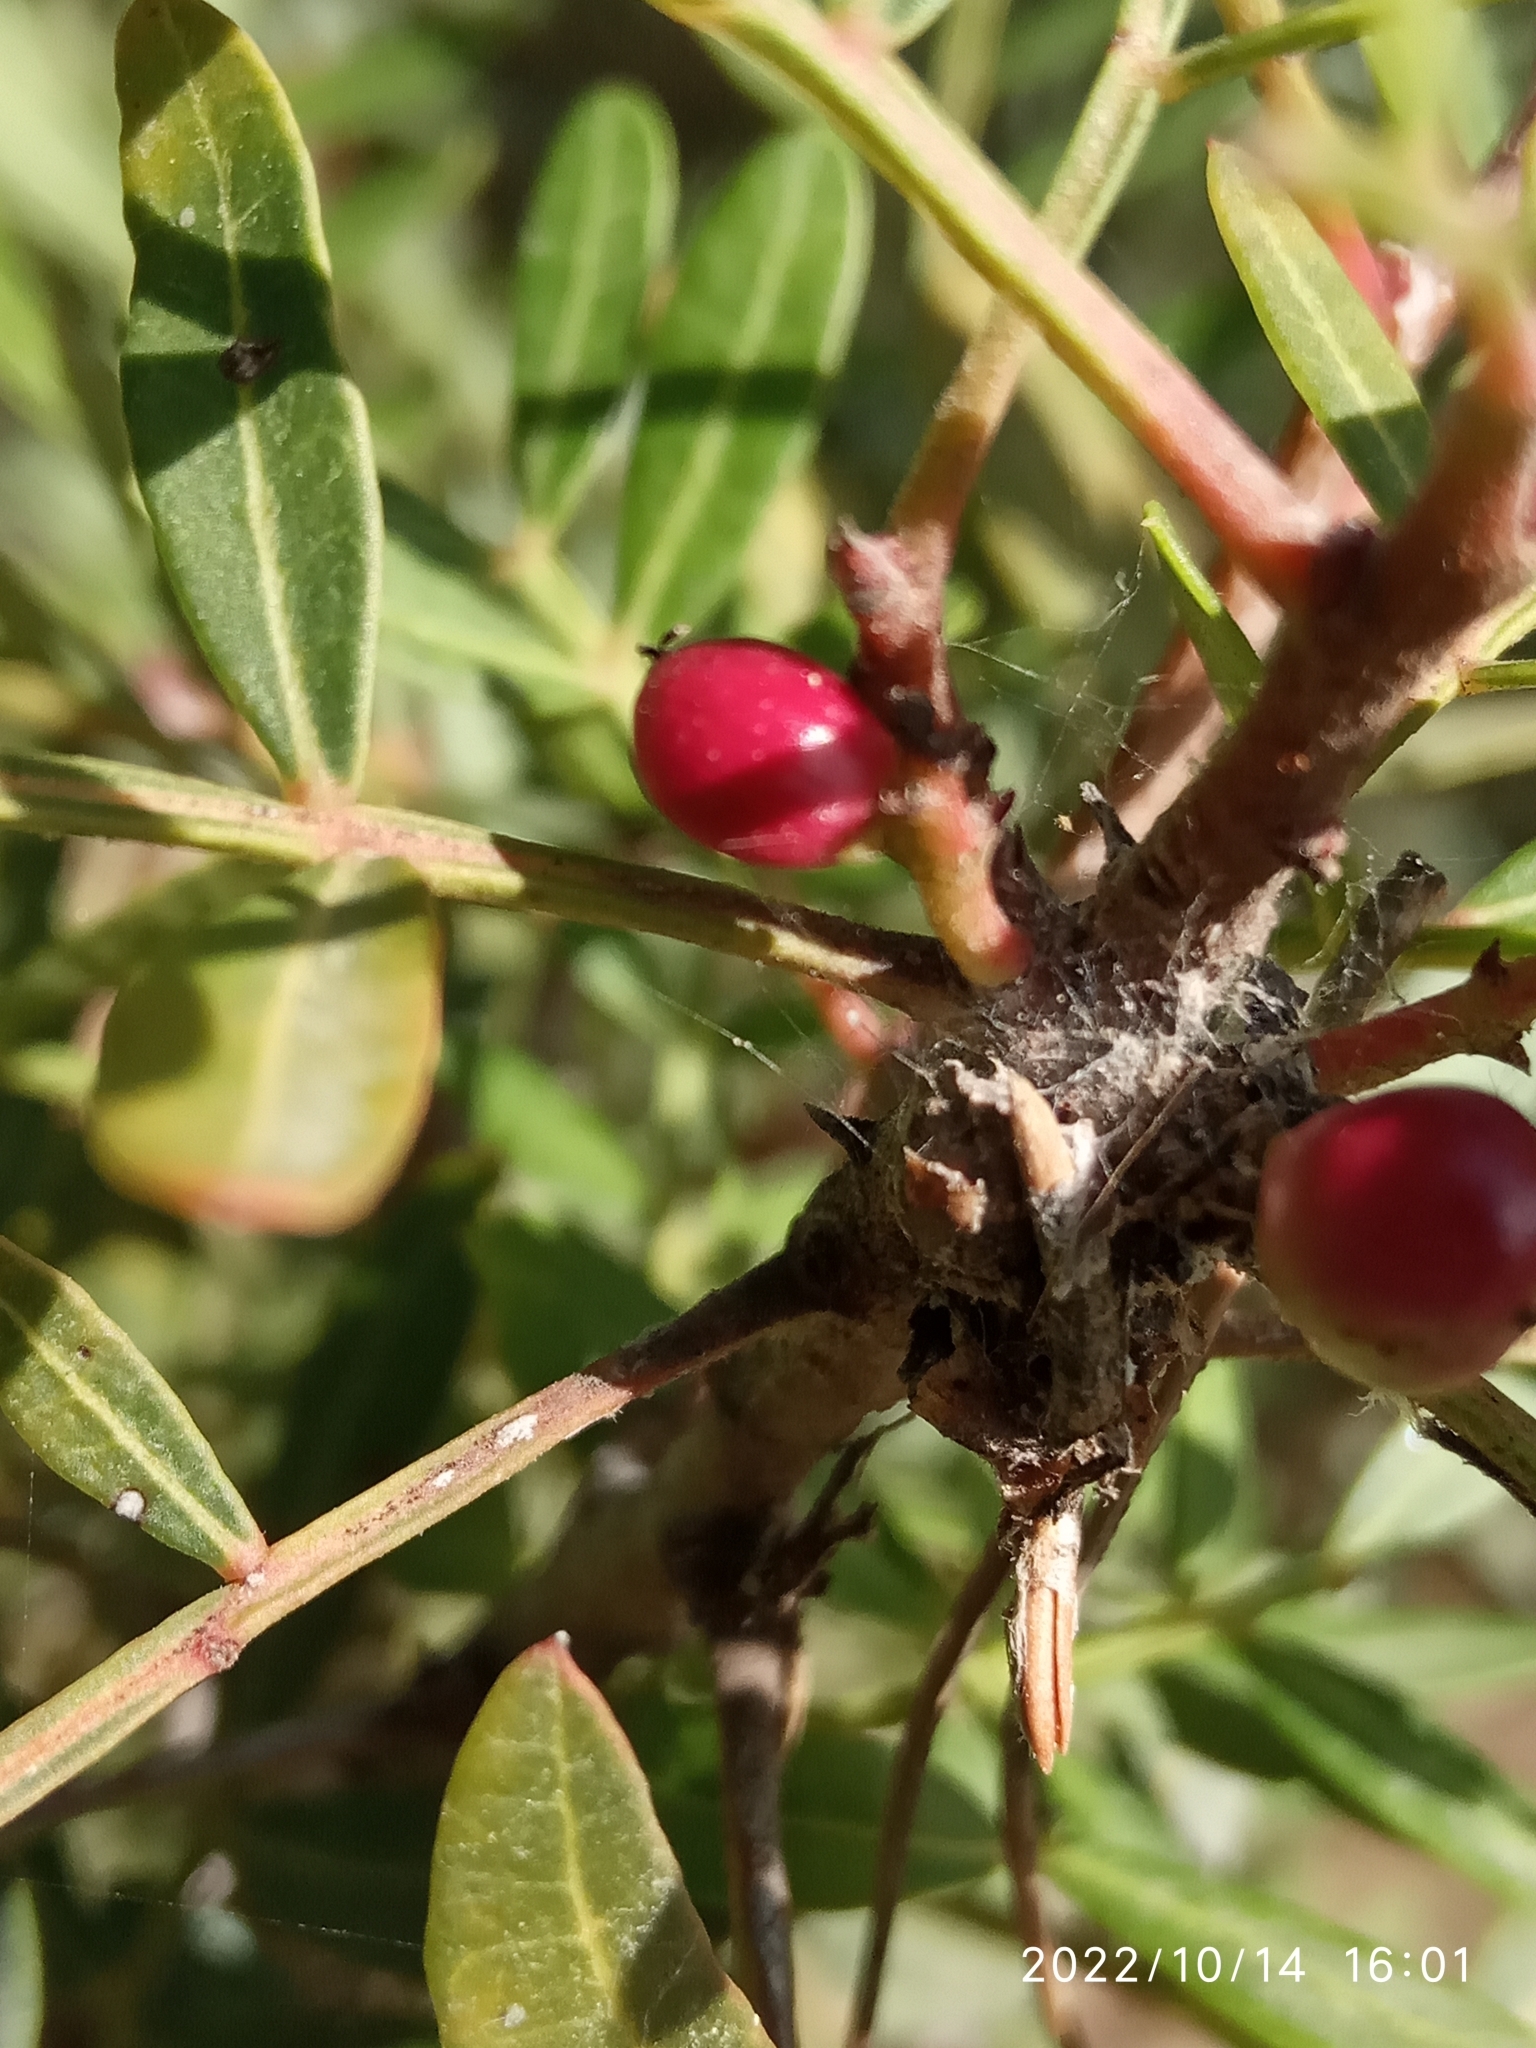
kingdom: Plantae
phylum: Tracheophyta
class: Magnoliopsida
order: Sapindales
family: Anacardiaceae
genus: Pistacia
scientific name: Pistacia lentiscus
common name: Lentisk
